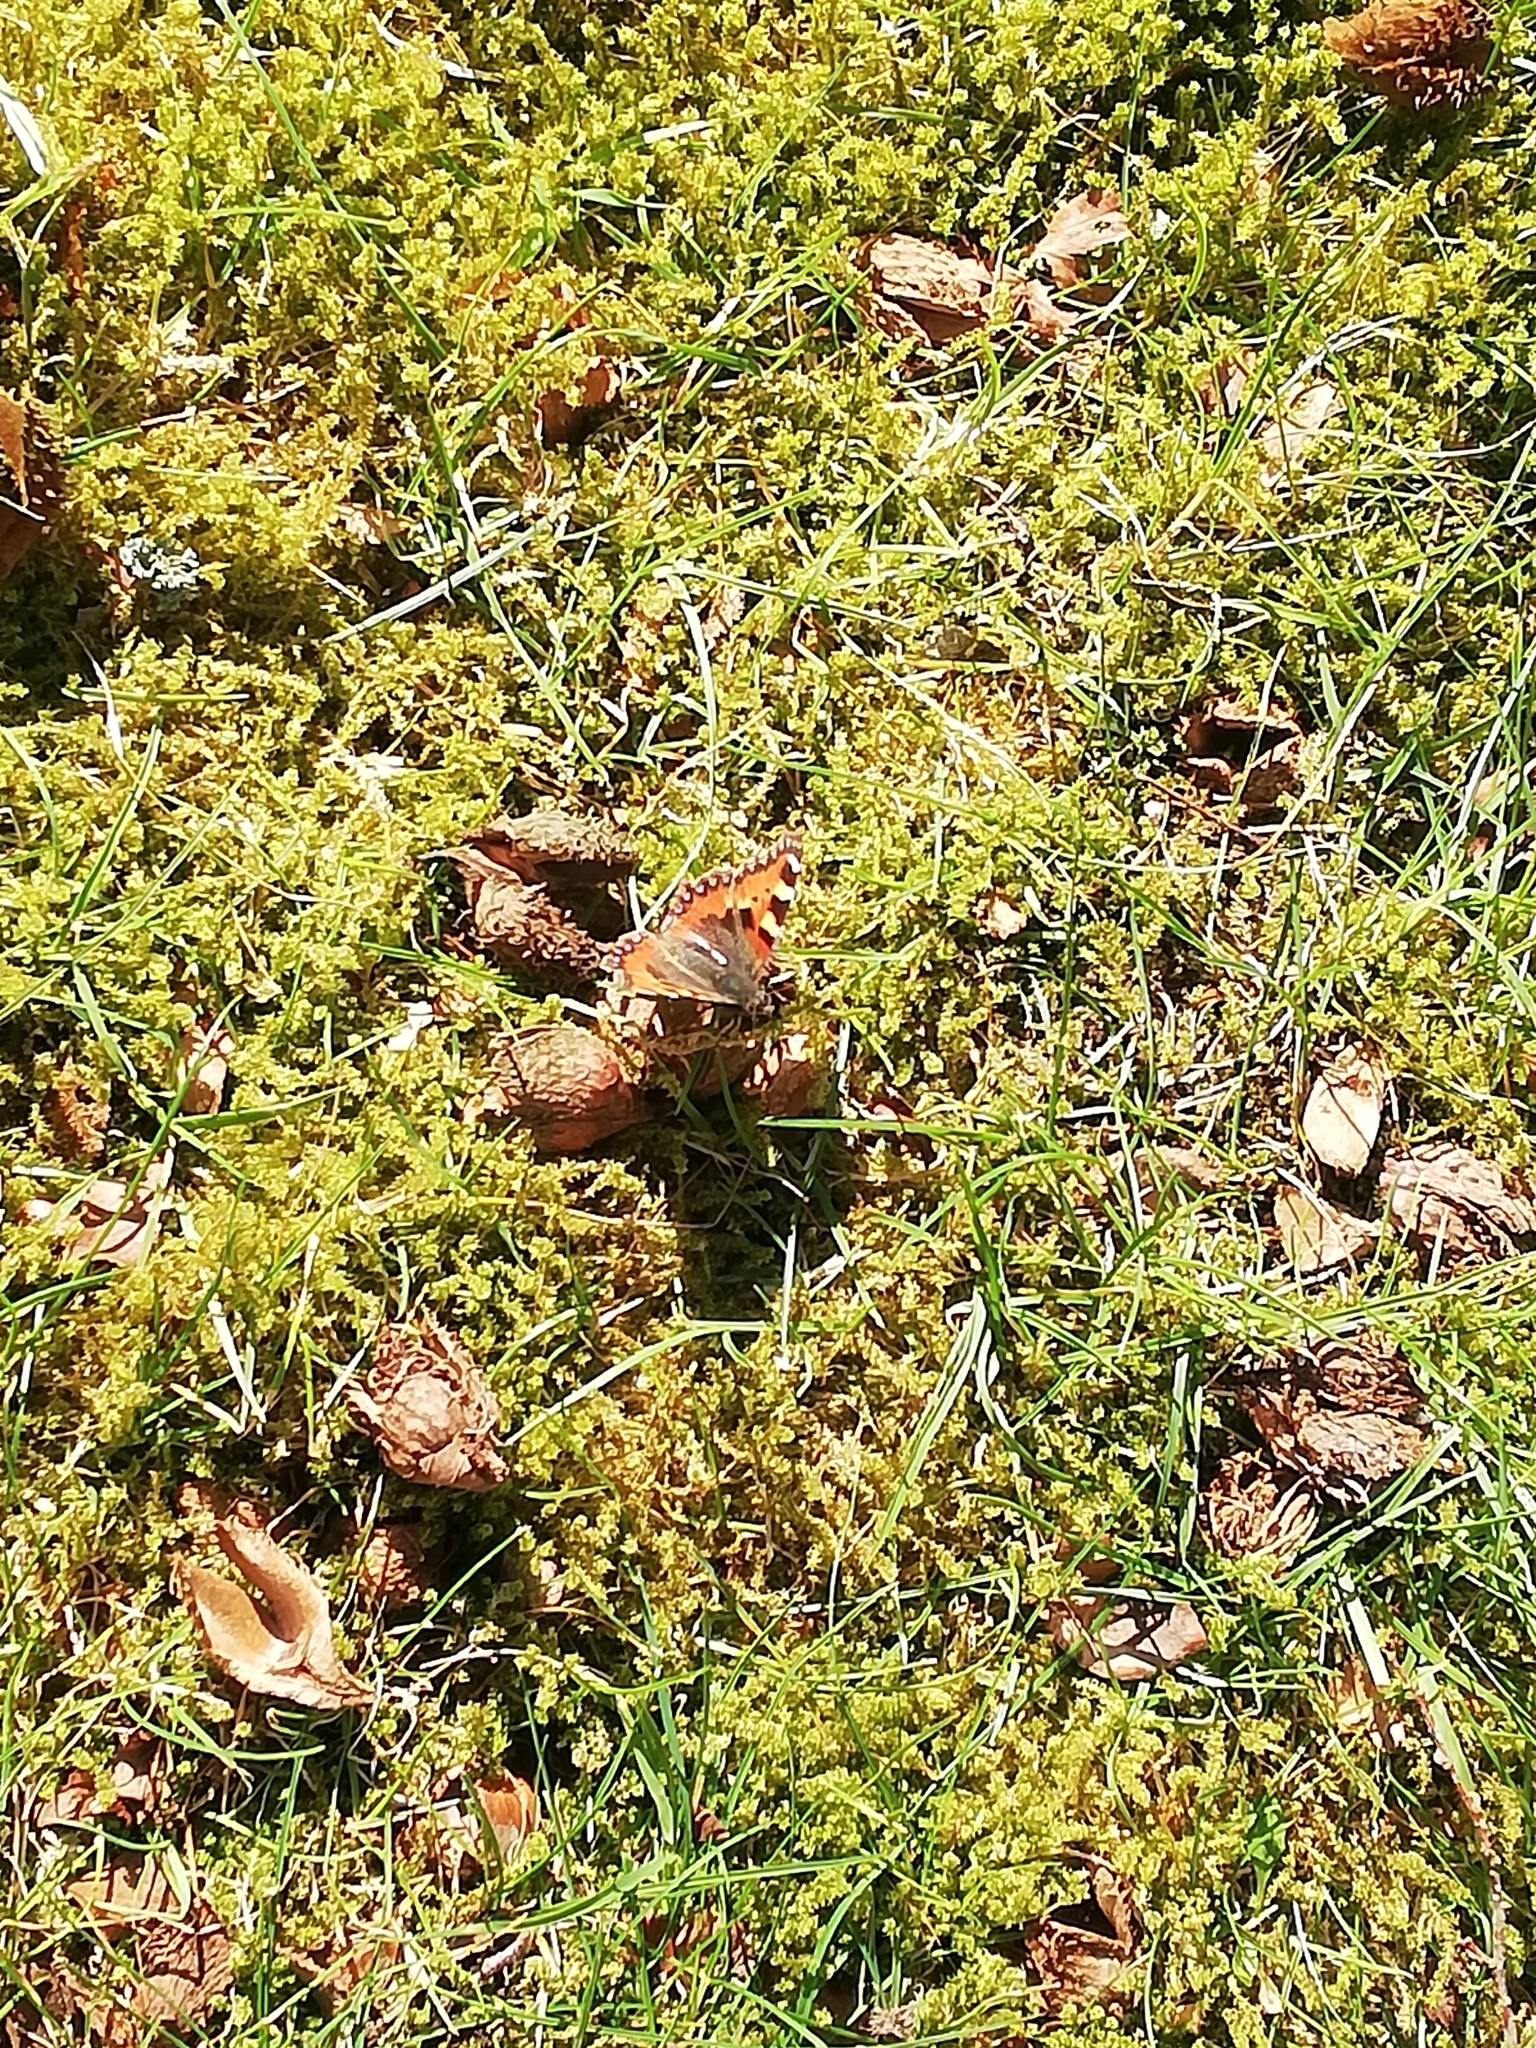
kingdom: Animalia
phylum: Arthropoda
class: Insecta
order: Lepidoptera
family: Nymphalidae
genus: Aglais
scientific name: Aglais urticae
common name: Small tortoiseshell
